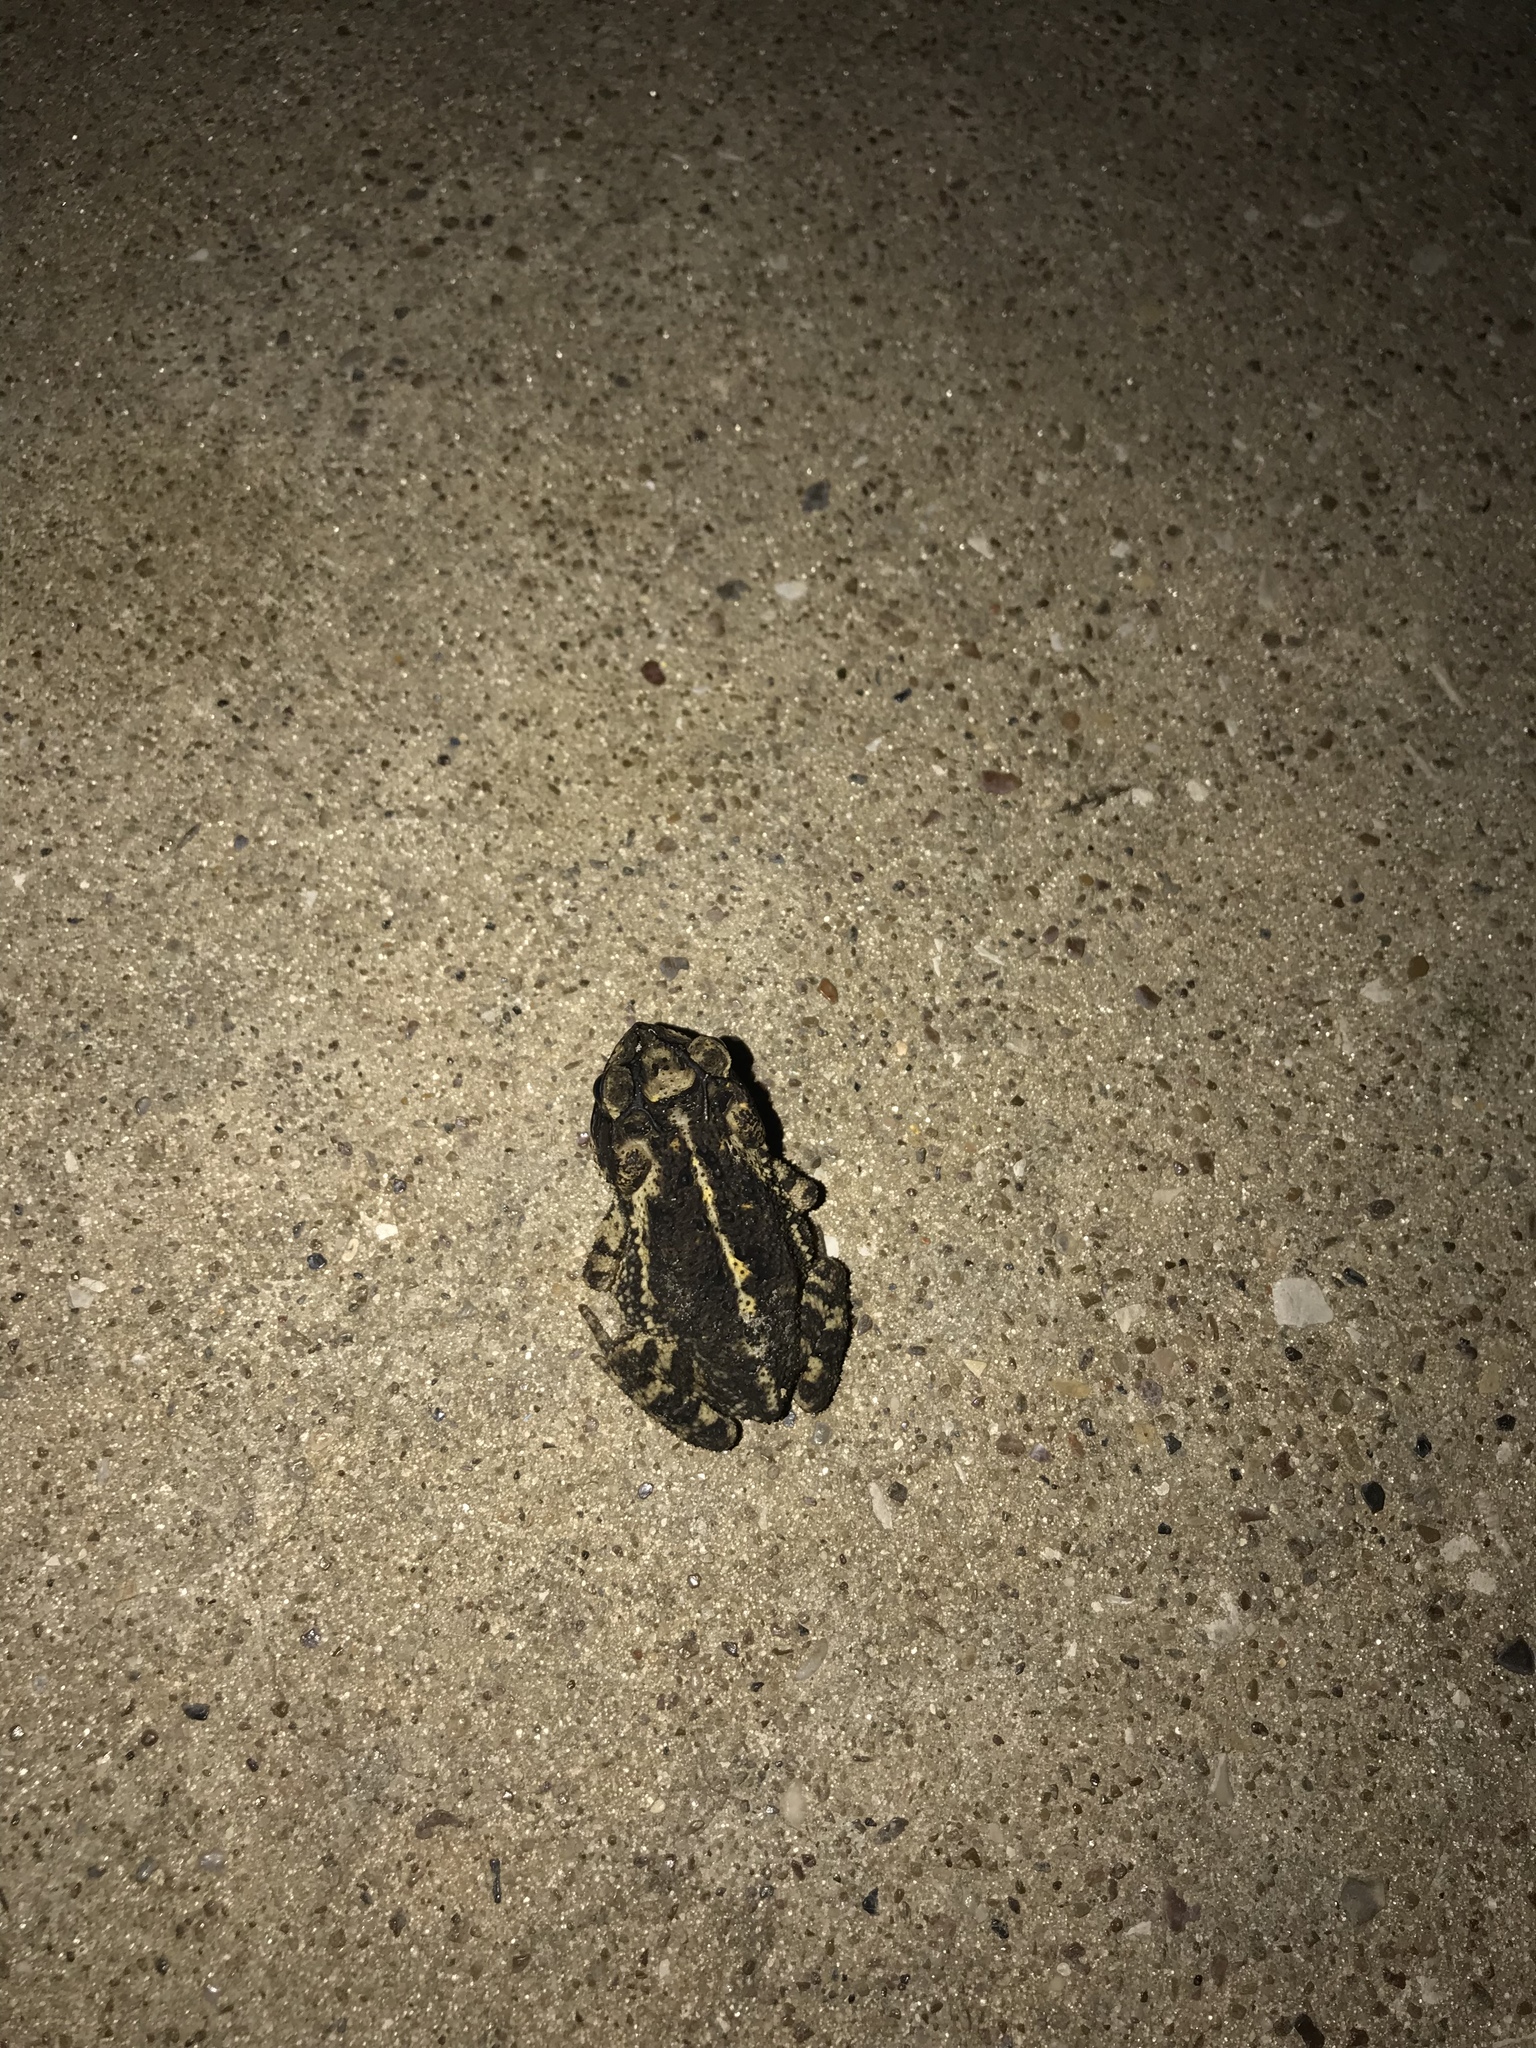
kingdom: Animalia
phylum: Chordata
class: Amphibia
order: Anura
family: Bufonidae
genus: Incilius
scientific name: Incilius nebulifer
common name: Gulf coast toad
